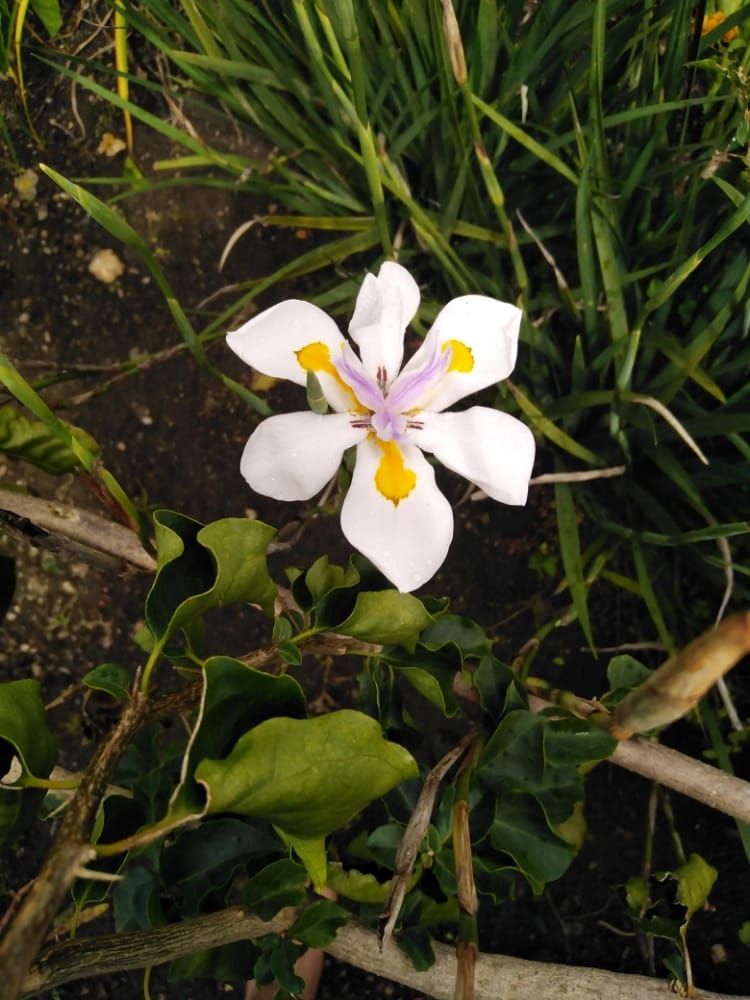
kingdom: Plantae
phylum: Tracheophyta
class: Liliopsida
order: Asparagales
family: Iridaceae
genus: Dietes
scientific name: Dietes grandiflora
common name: Wild iris
